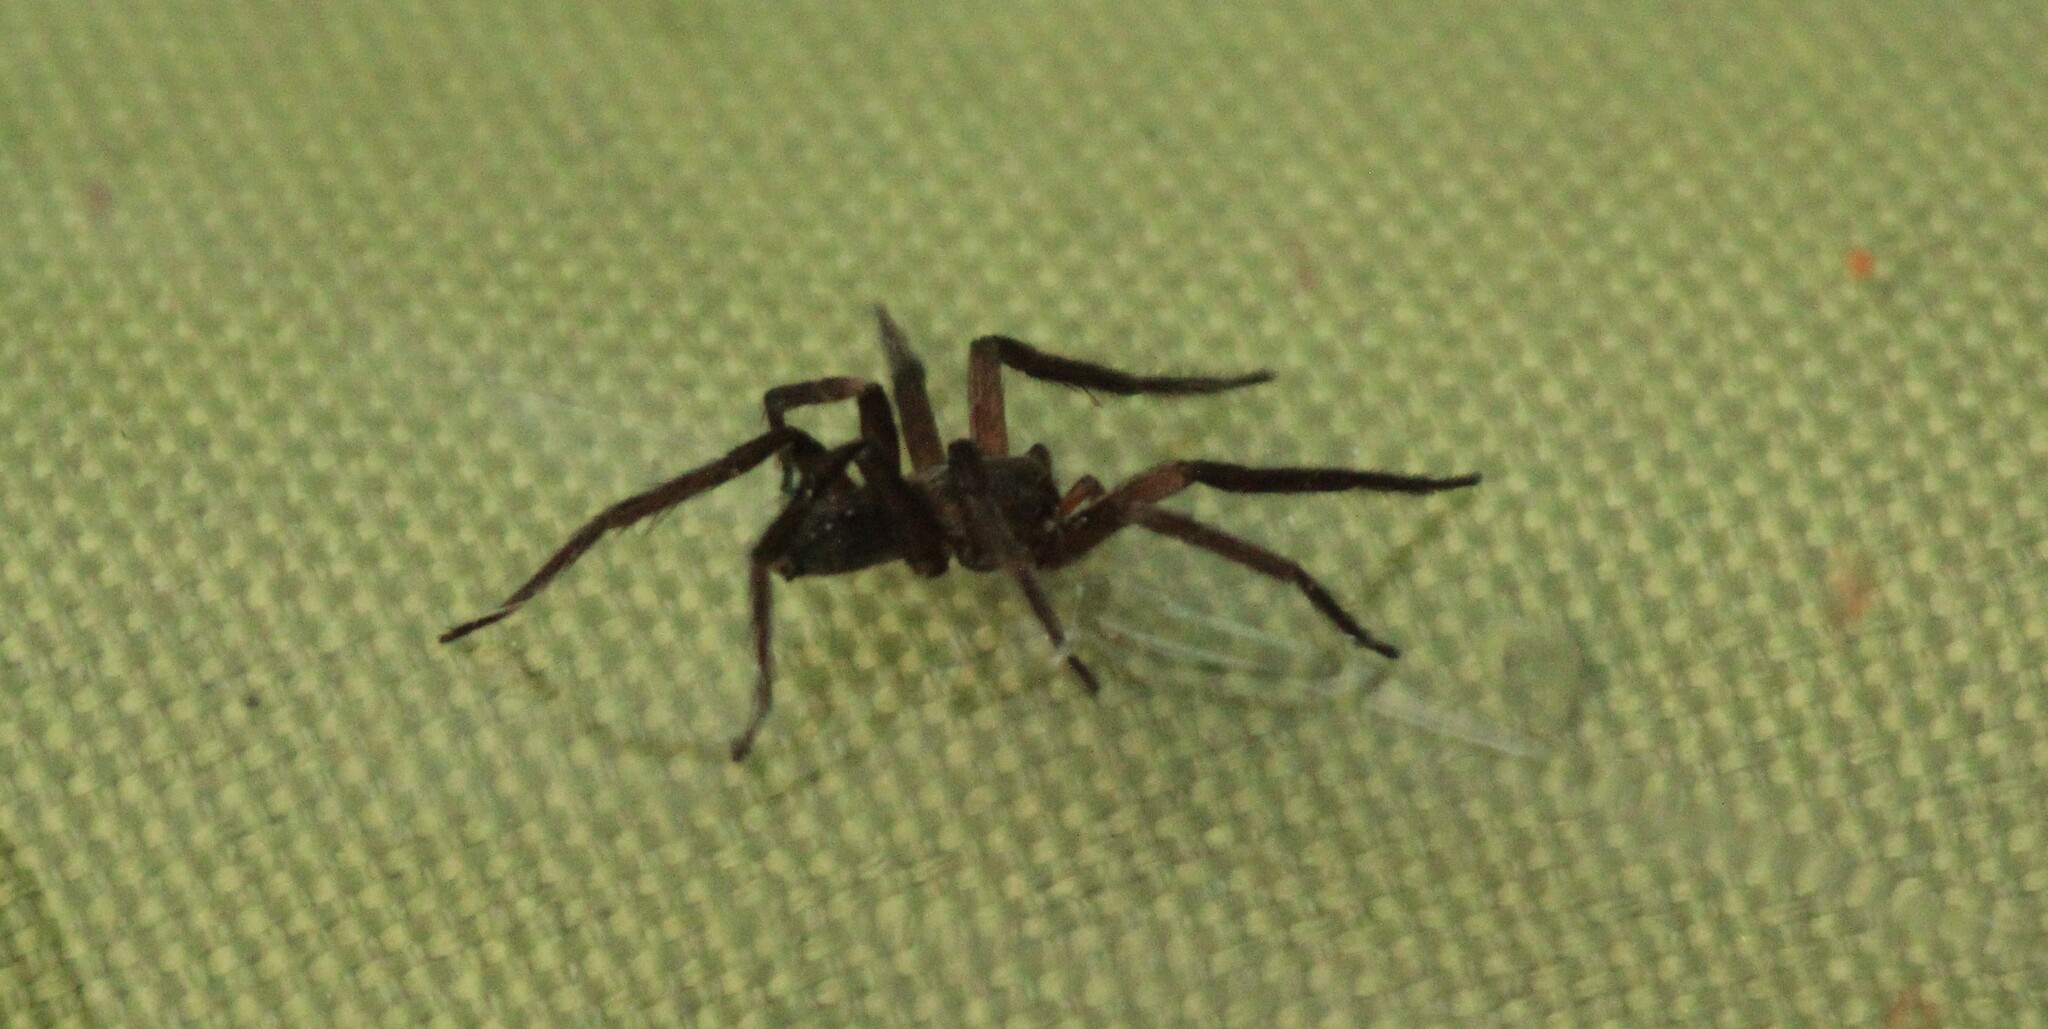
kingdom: Animalia
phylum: Arthropoda
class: Arachnida
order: Araneae
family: Ctenidae
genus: Asthenoctenus
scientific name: Asthenoctenus borellii
